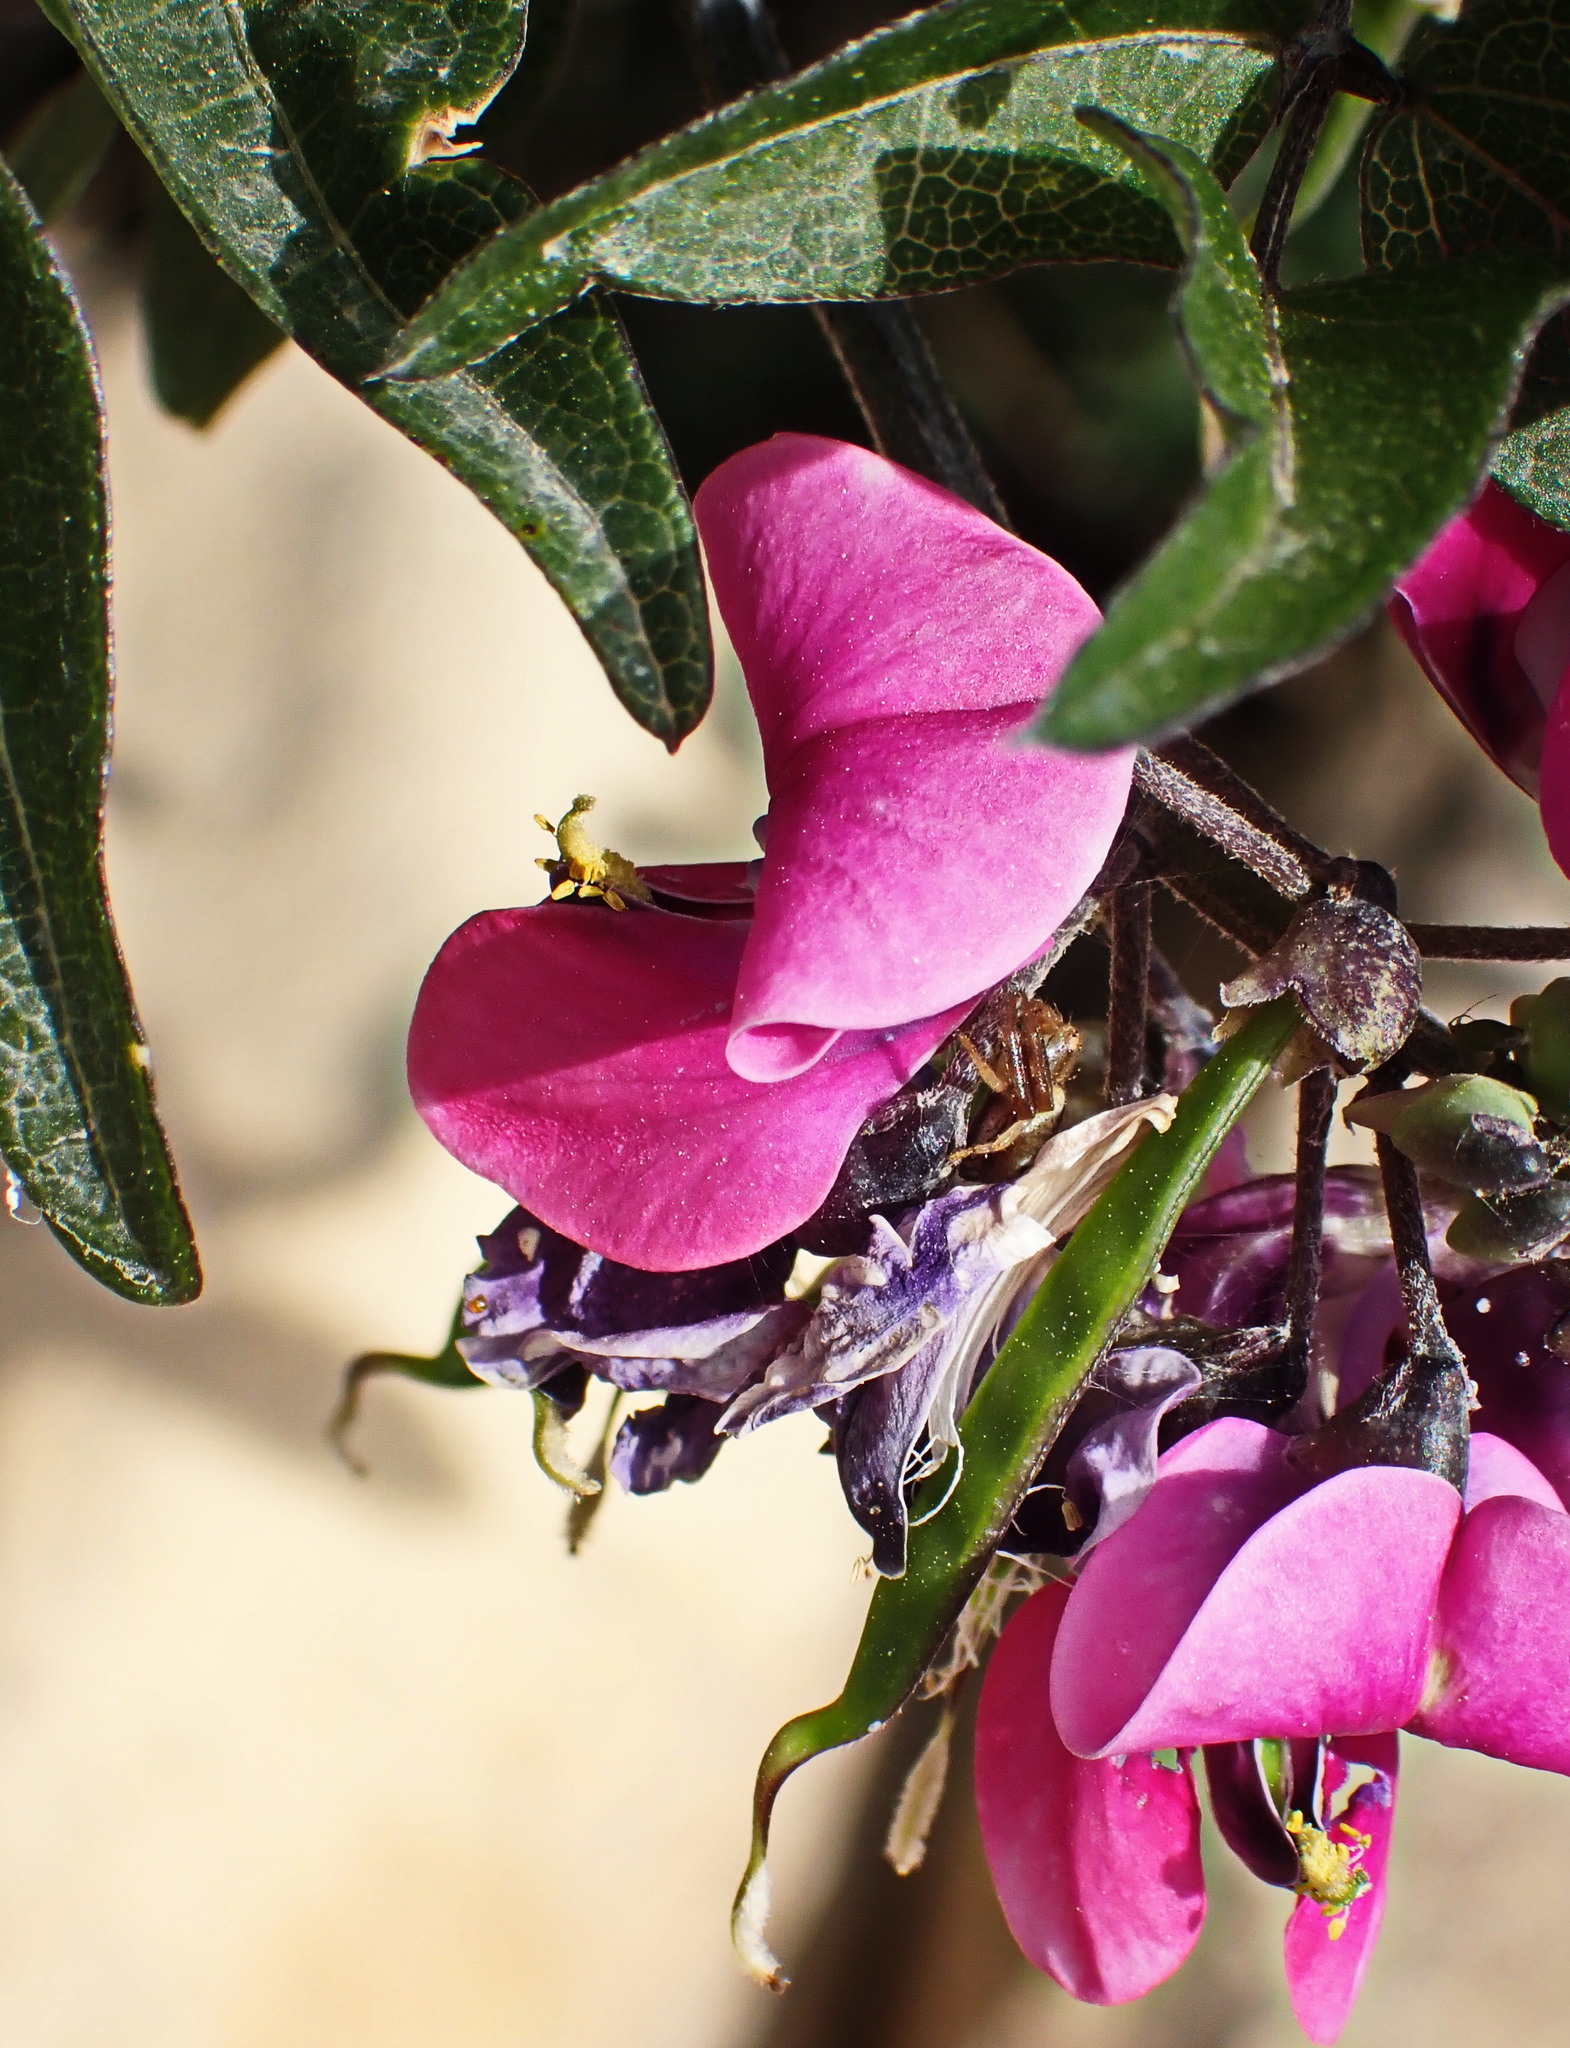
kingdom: Plantae
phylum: Tracheophyta
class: Magnoliopsida
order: Fabales
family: Fabaceae
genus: Dipogon
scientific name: Dipogon lignosus
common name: Okie bean
